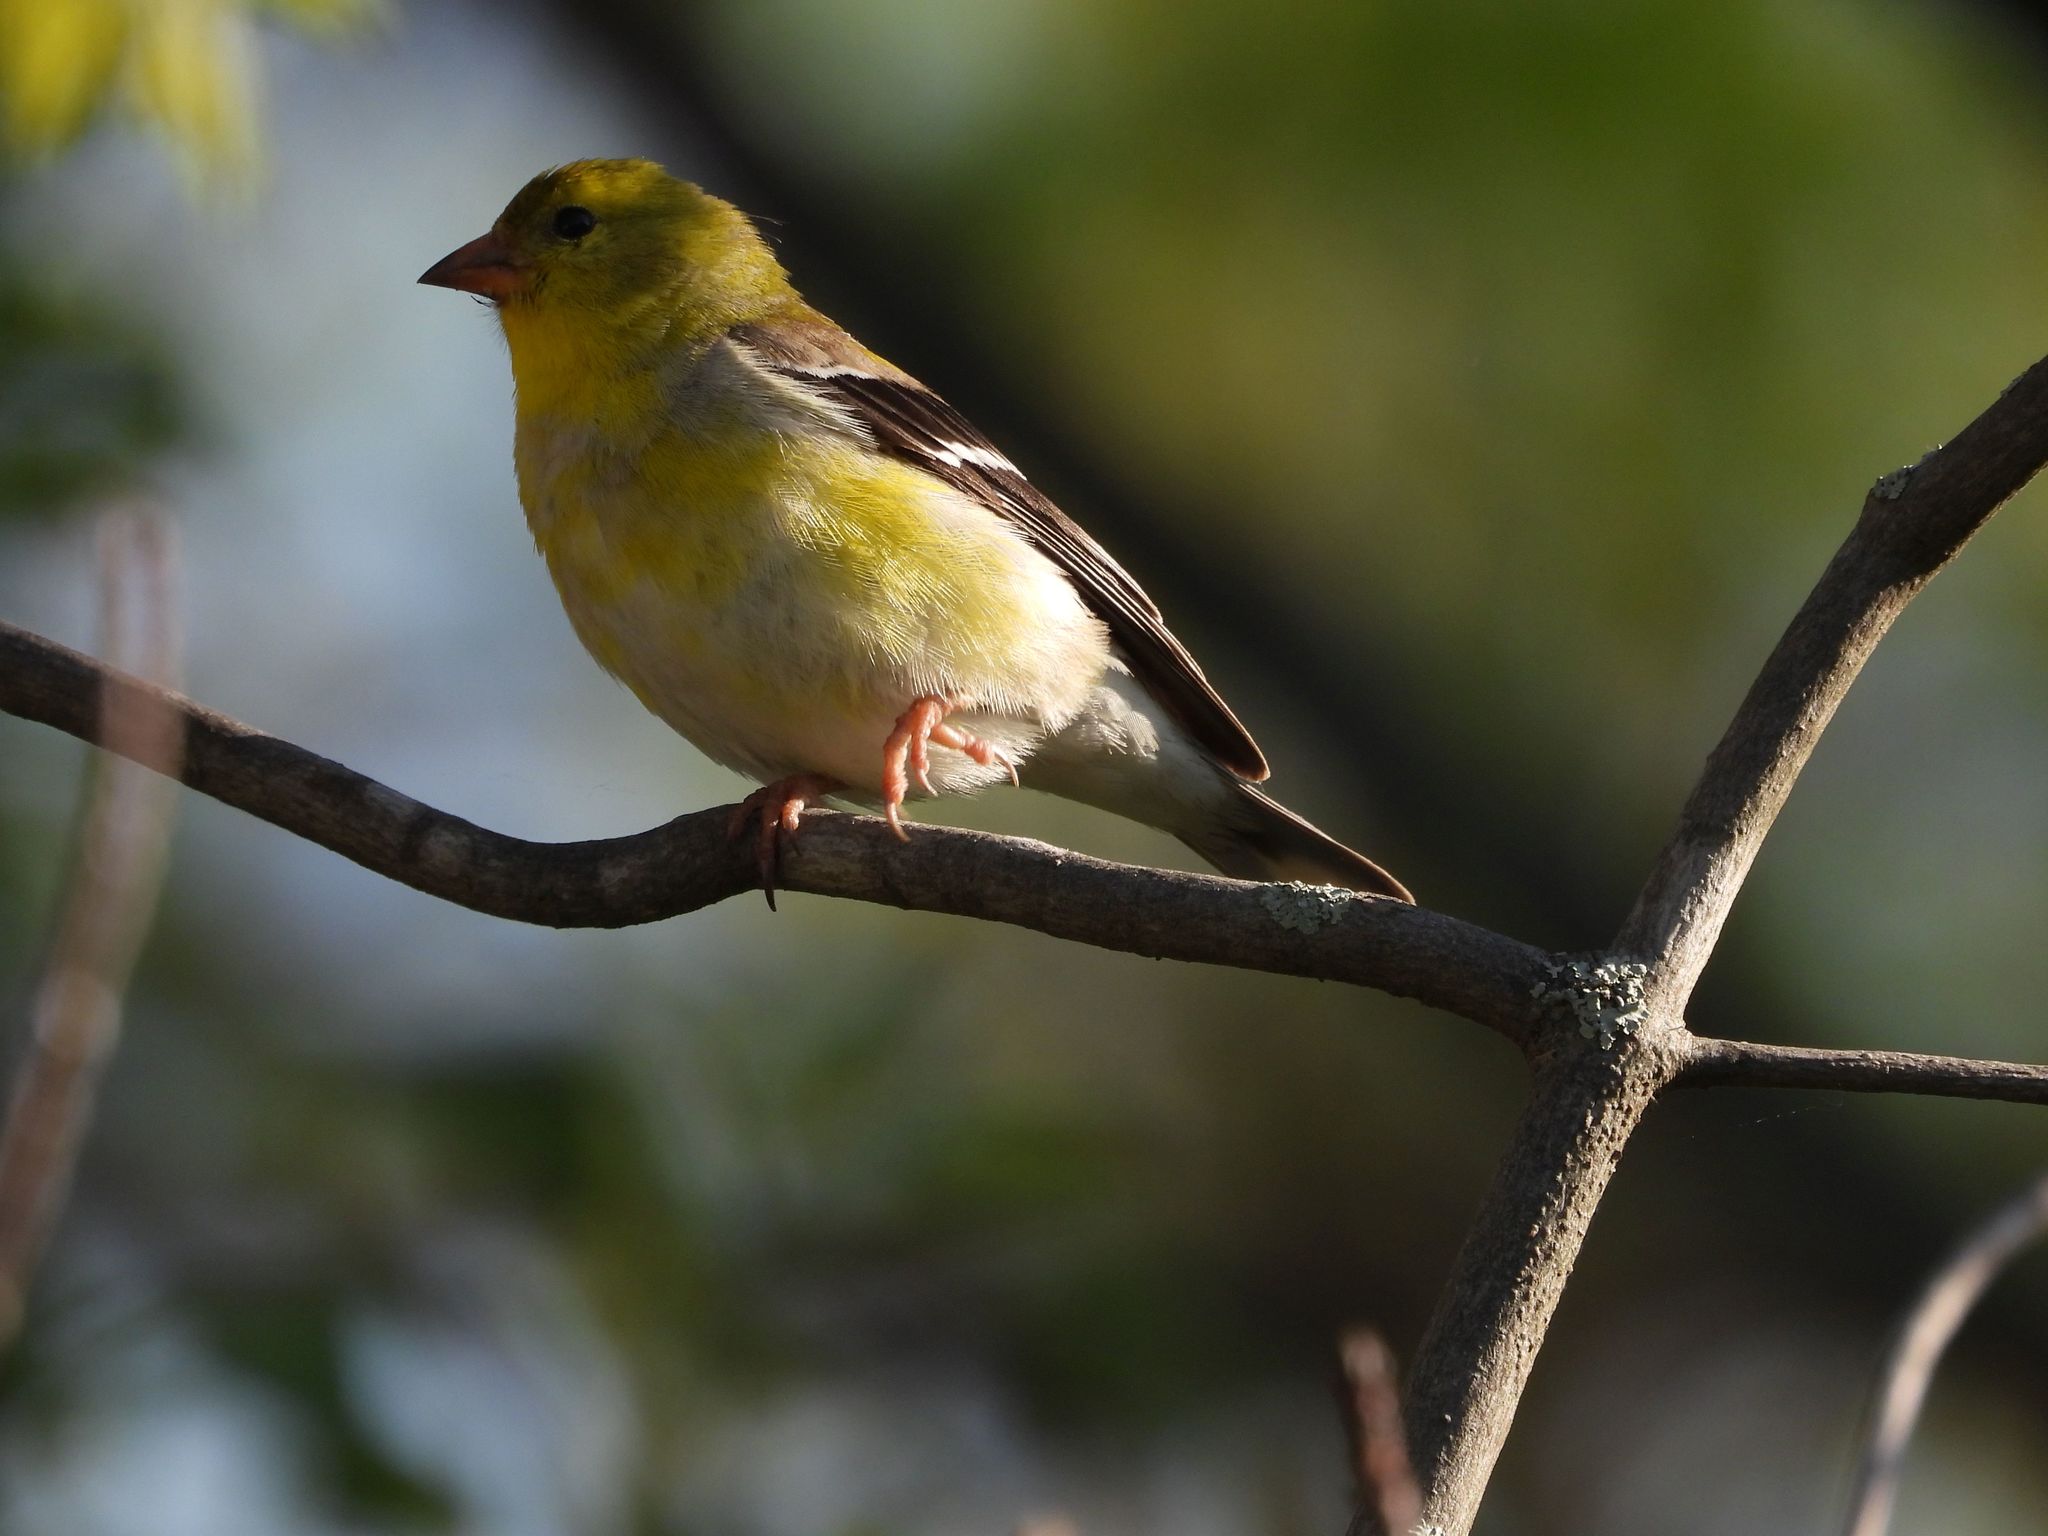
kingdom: Animalia
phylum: Chordata
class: Aves
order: Passeriformes
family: Fringillidae
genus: Spinus
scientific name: Spinus tristis
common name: American goldfinch
